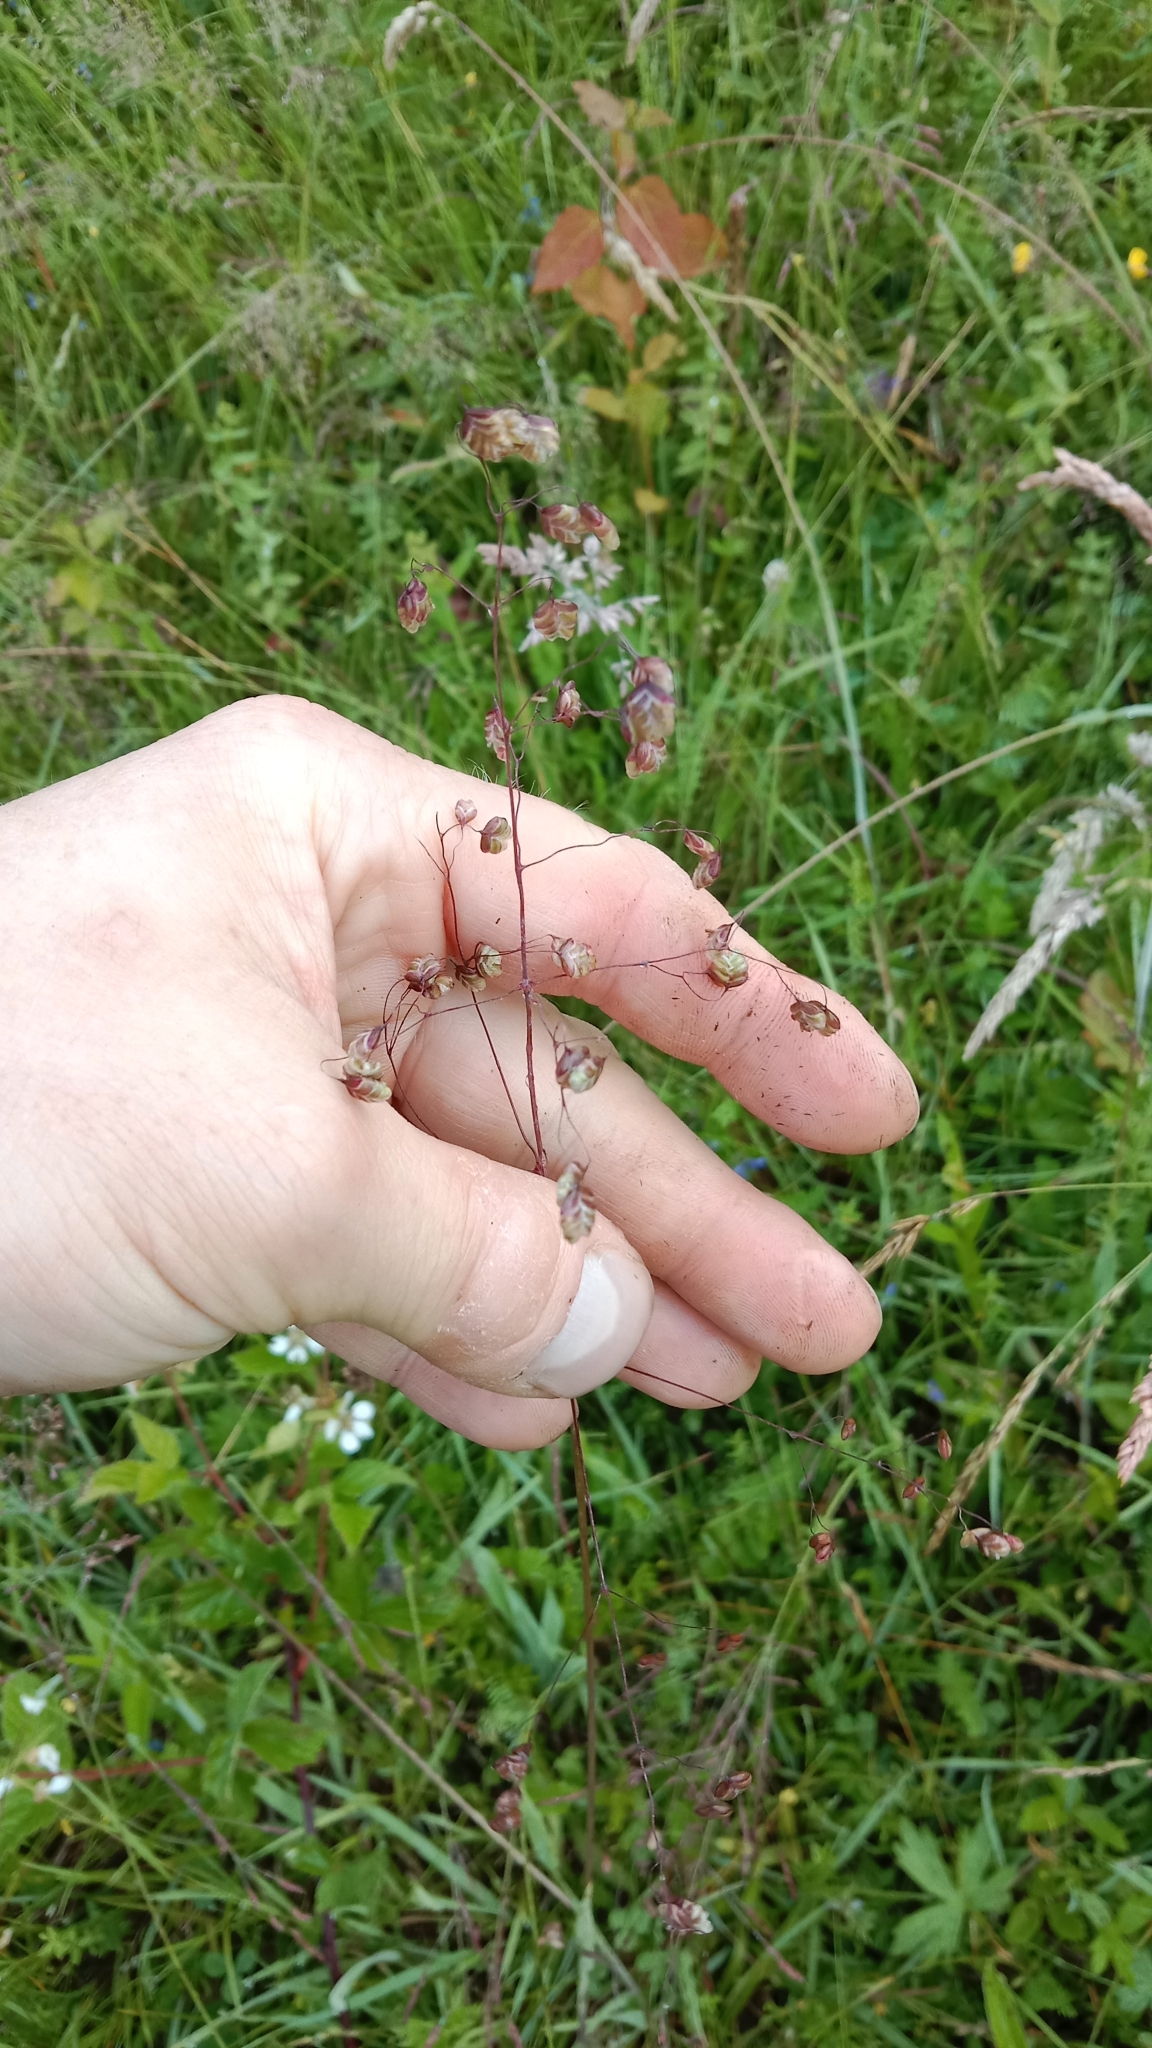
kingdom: Plantae
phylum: Tracheophyta
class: Liliopsida
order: Poales
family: Poaceae
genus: Briza
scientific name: Briza media
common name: Quaking grass
